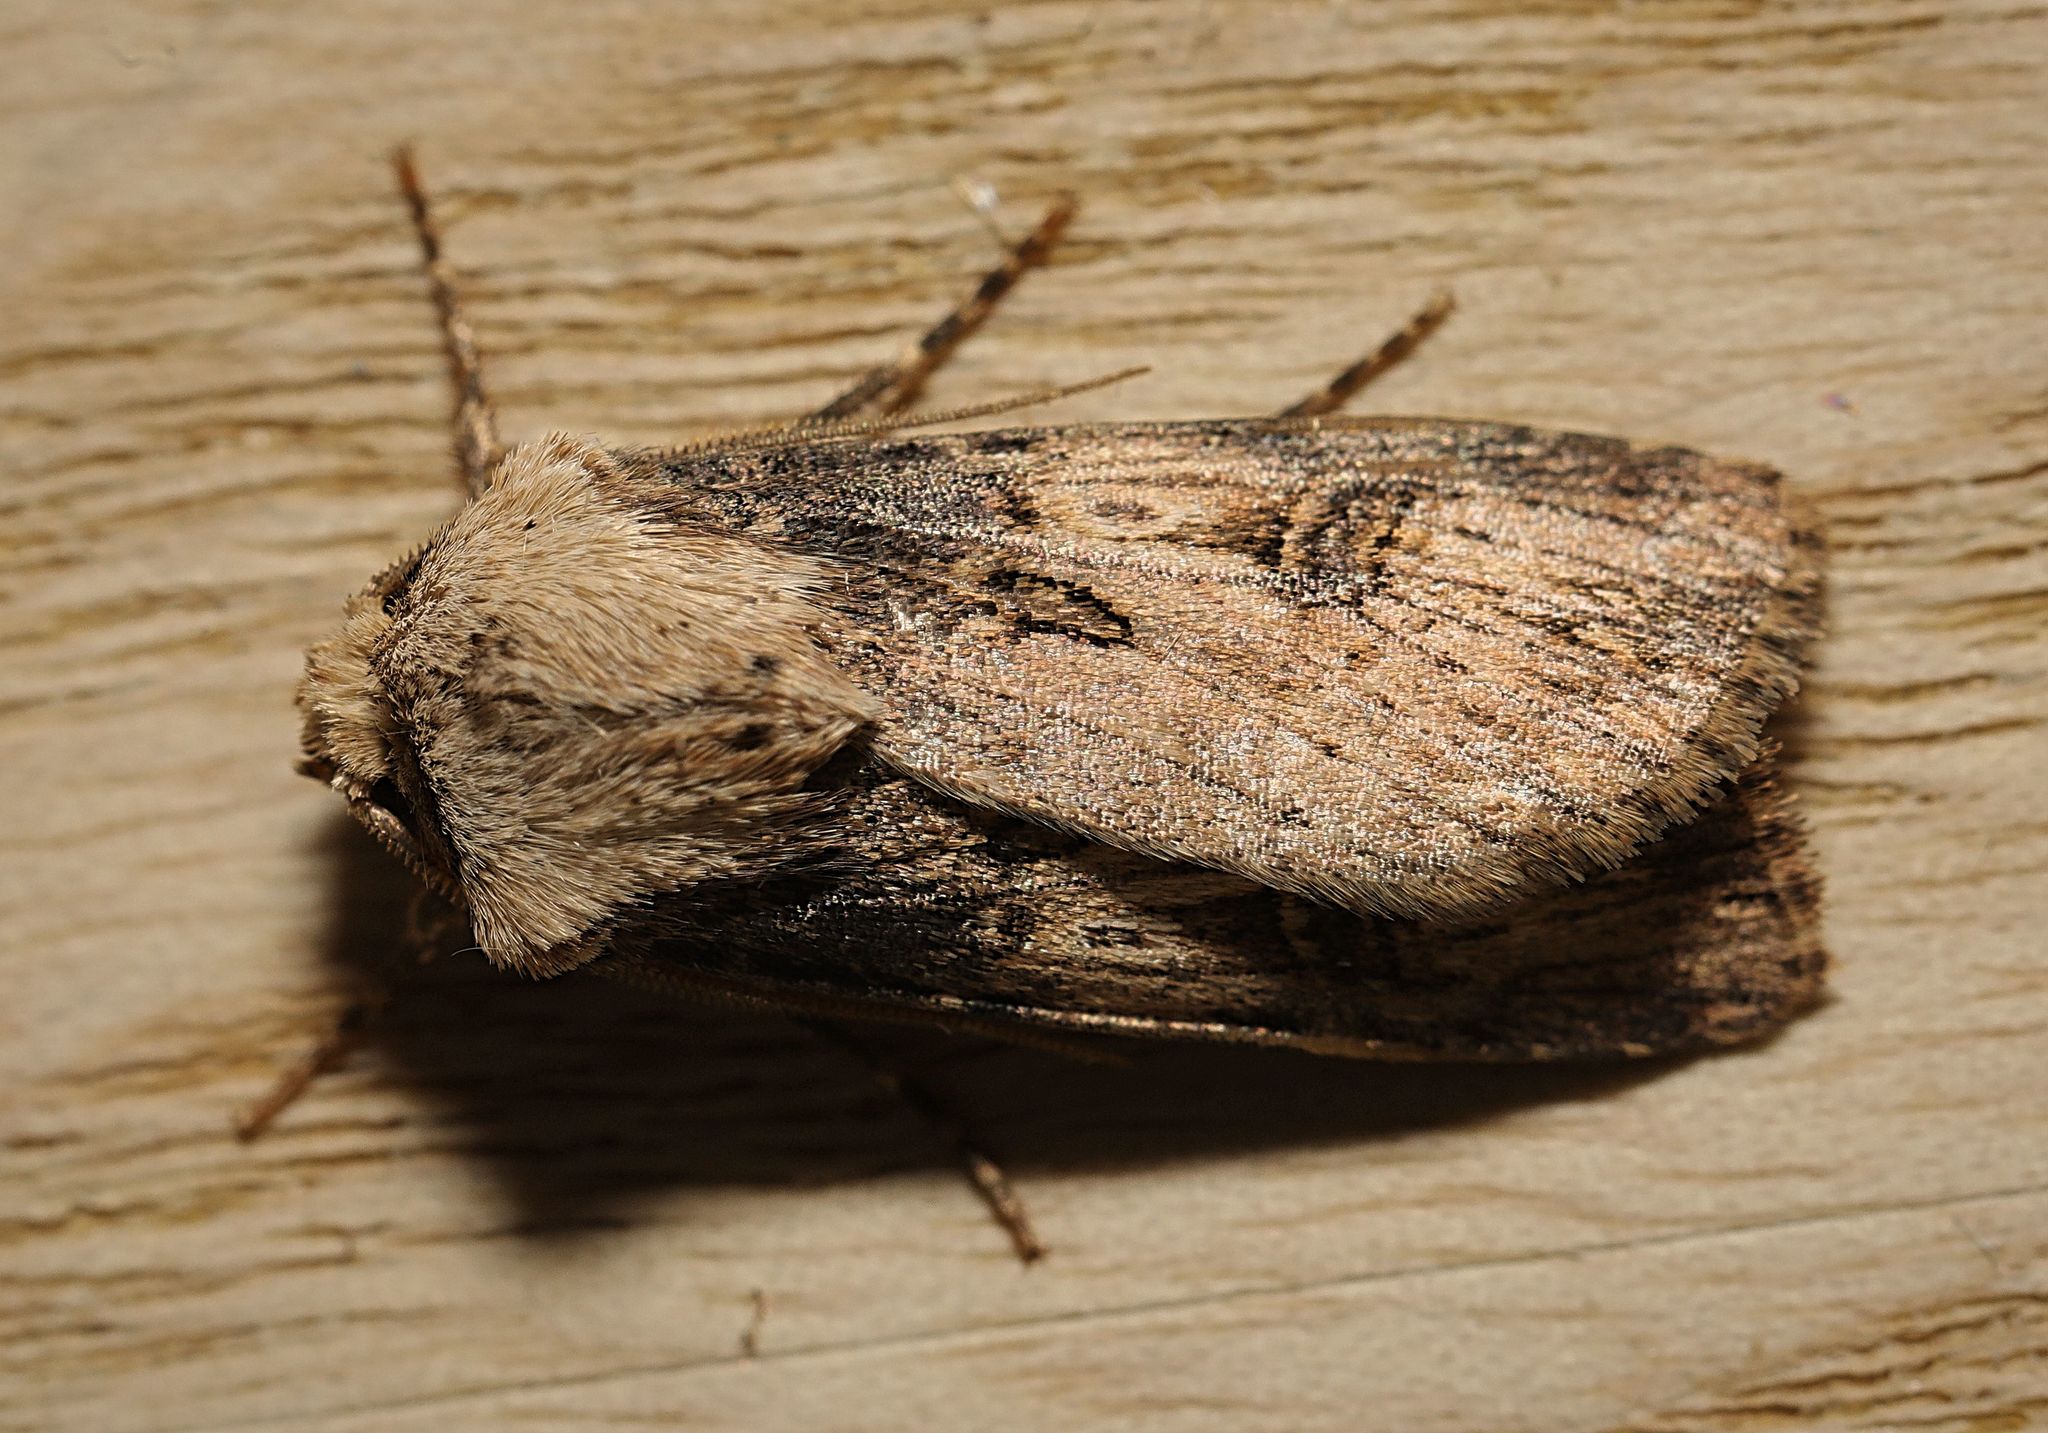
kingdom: Animalia
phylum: Arthropoda
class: Insecta
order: Lepidoptera
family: Noctuidae
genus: Agrotis
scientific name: Agrotis puta
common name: Shuttle-shaped dart
